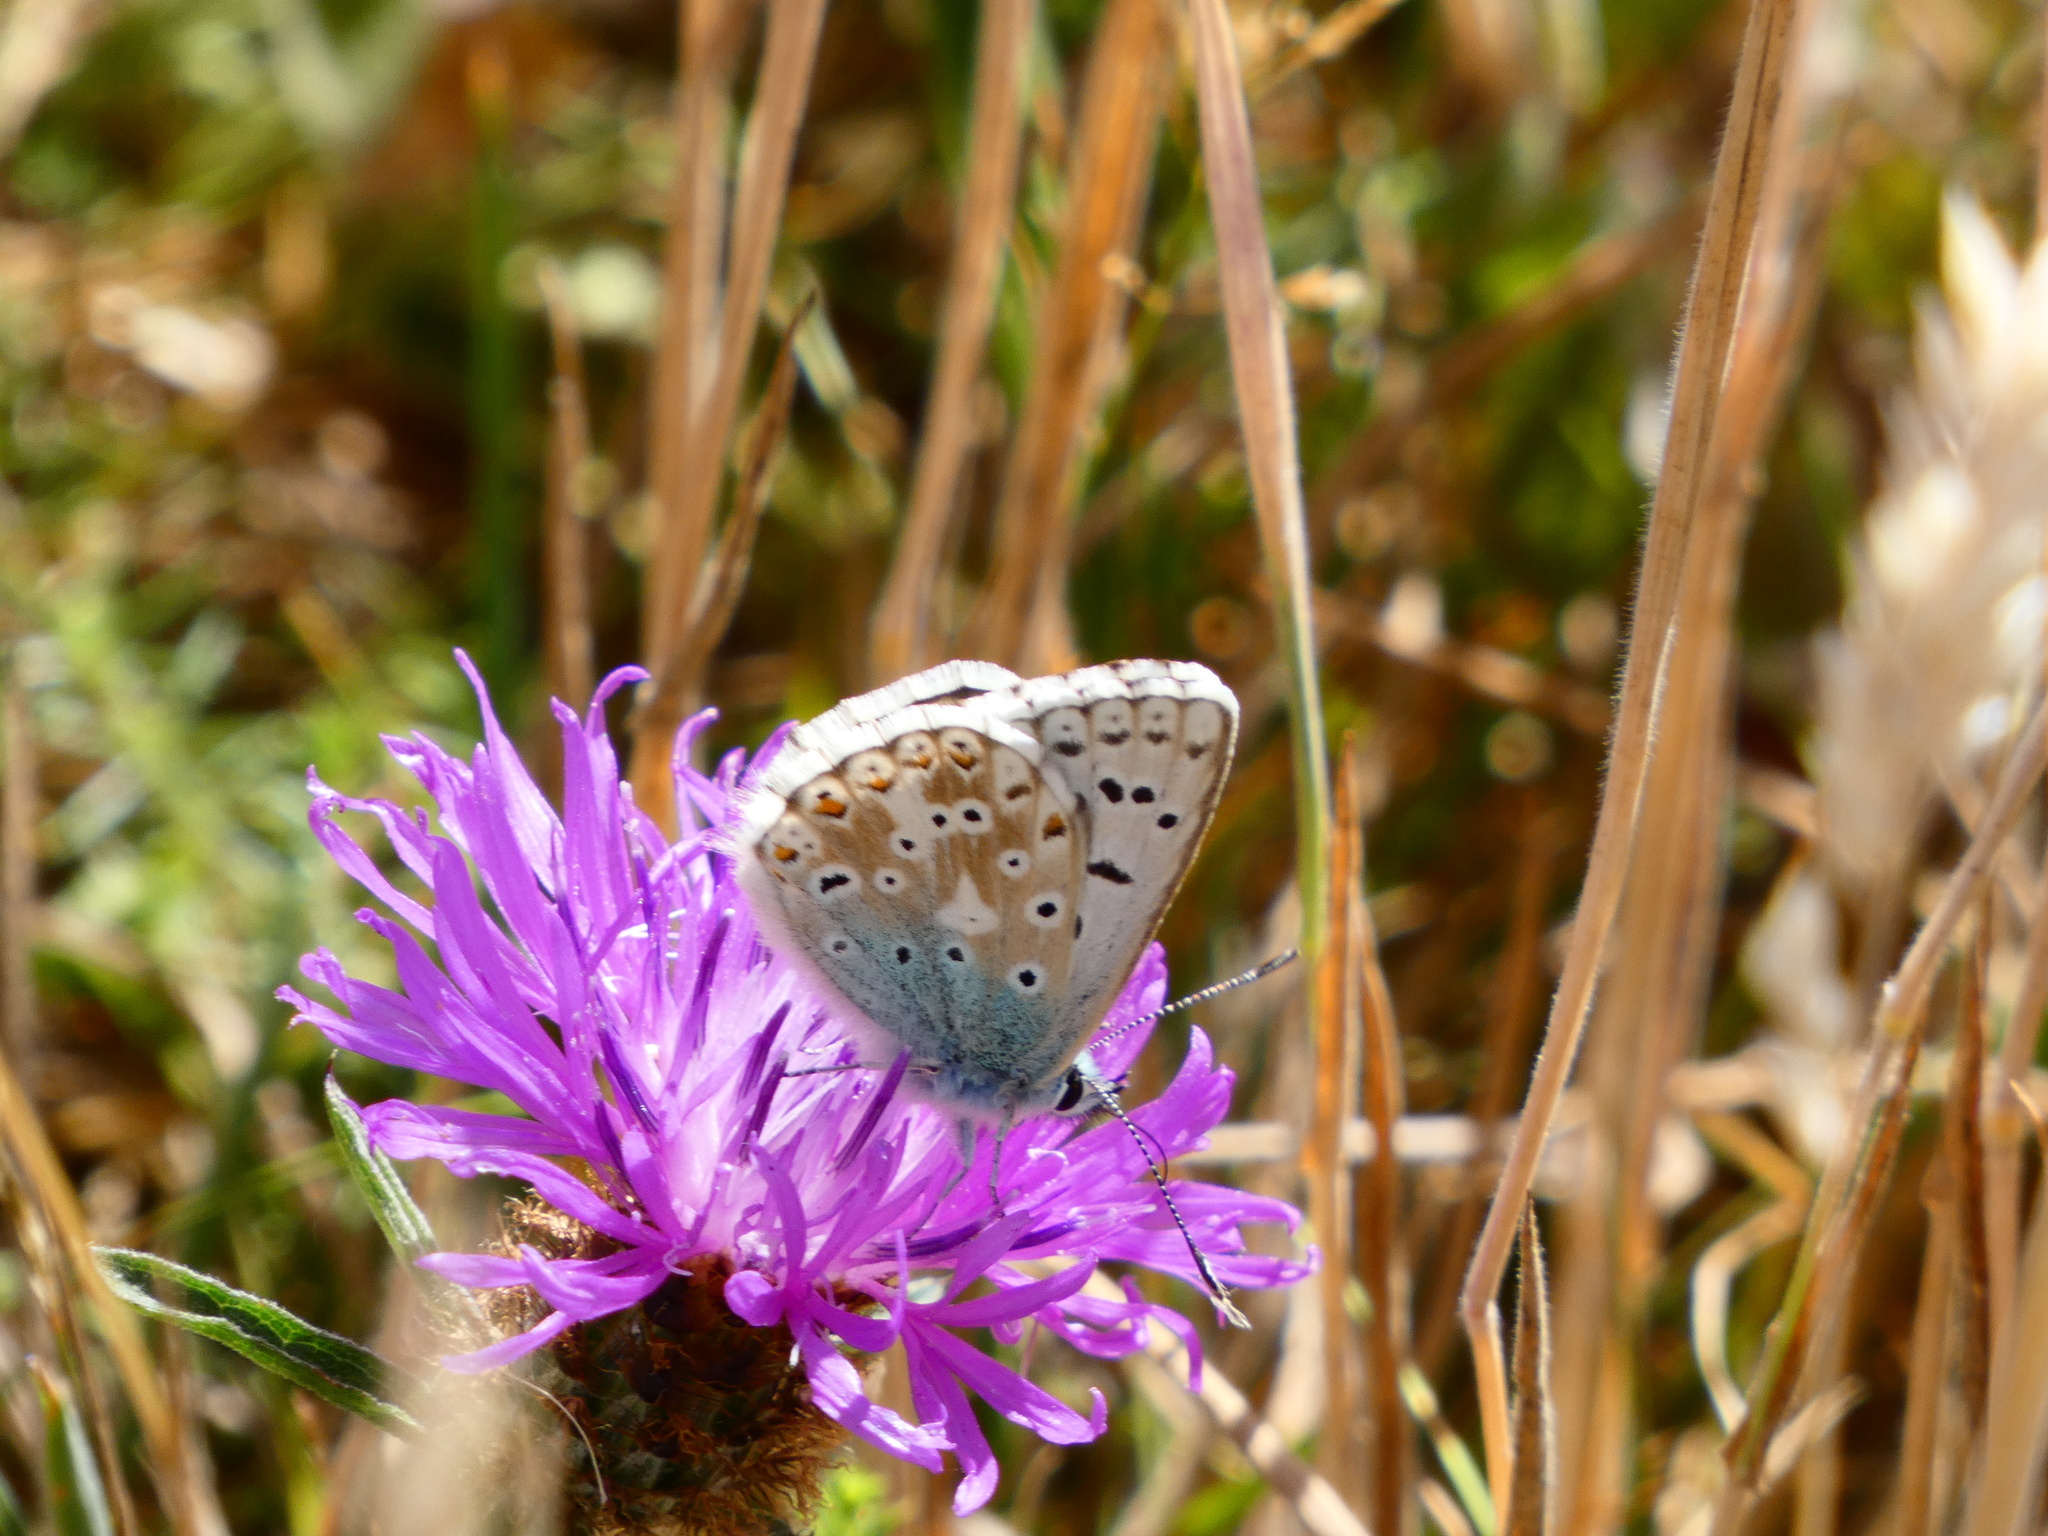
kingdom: Animalia
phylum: Arthropoda
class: Insecta
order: Lepidoptera
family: Lycaenidae
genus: Lysandra
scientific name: Lysandra coridon
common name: Chalkhill blue
